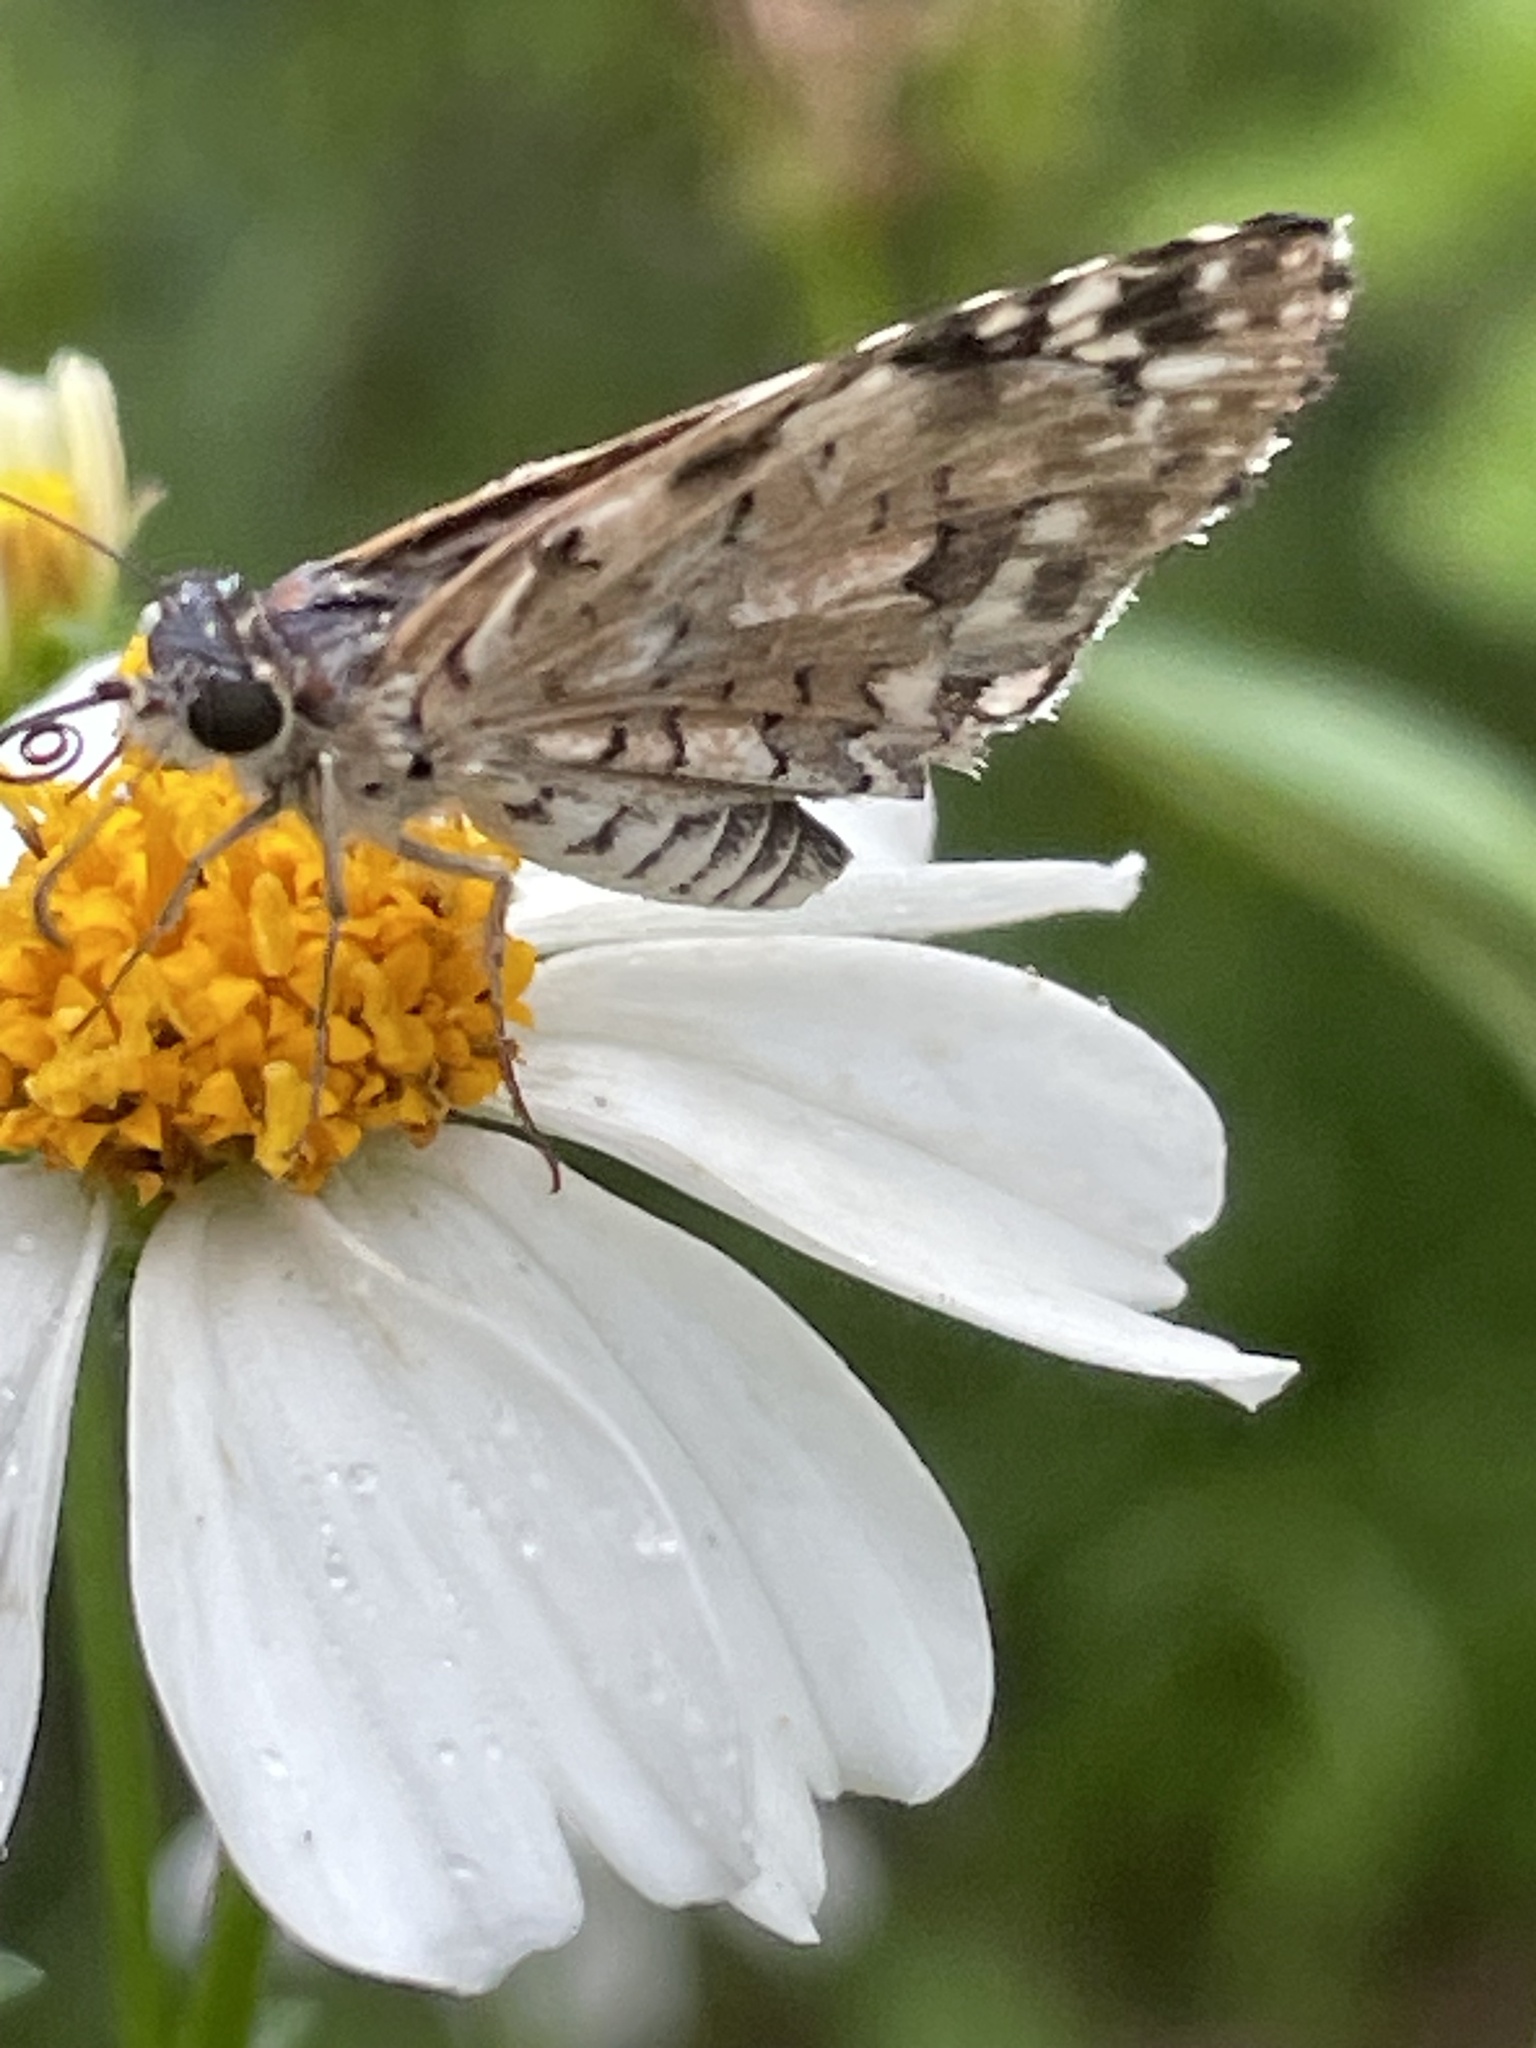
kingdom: Animalia
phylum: Arthropoda
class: Insecta
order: Lepidoptera
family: Hesperiidae
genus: Pyrgus
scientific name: Pyrgus oileus
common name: Tropical checkered-skipper
